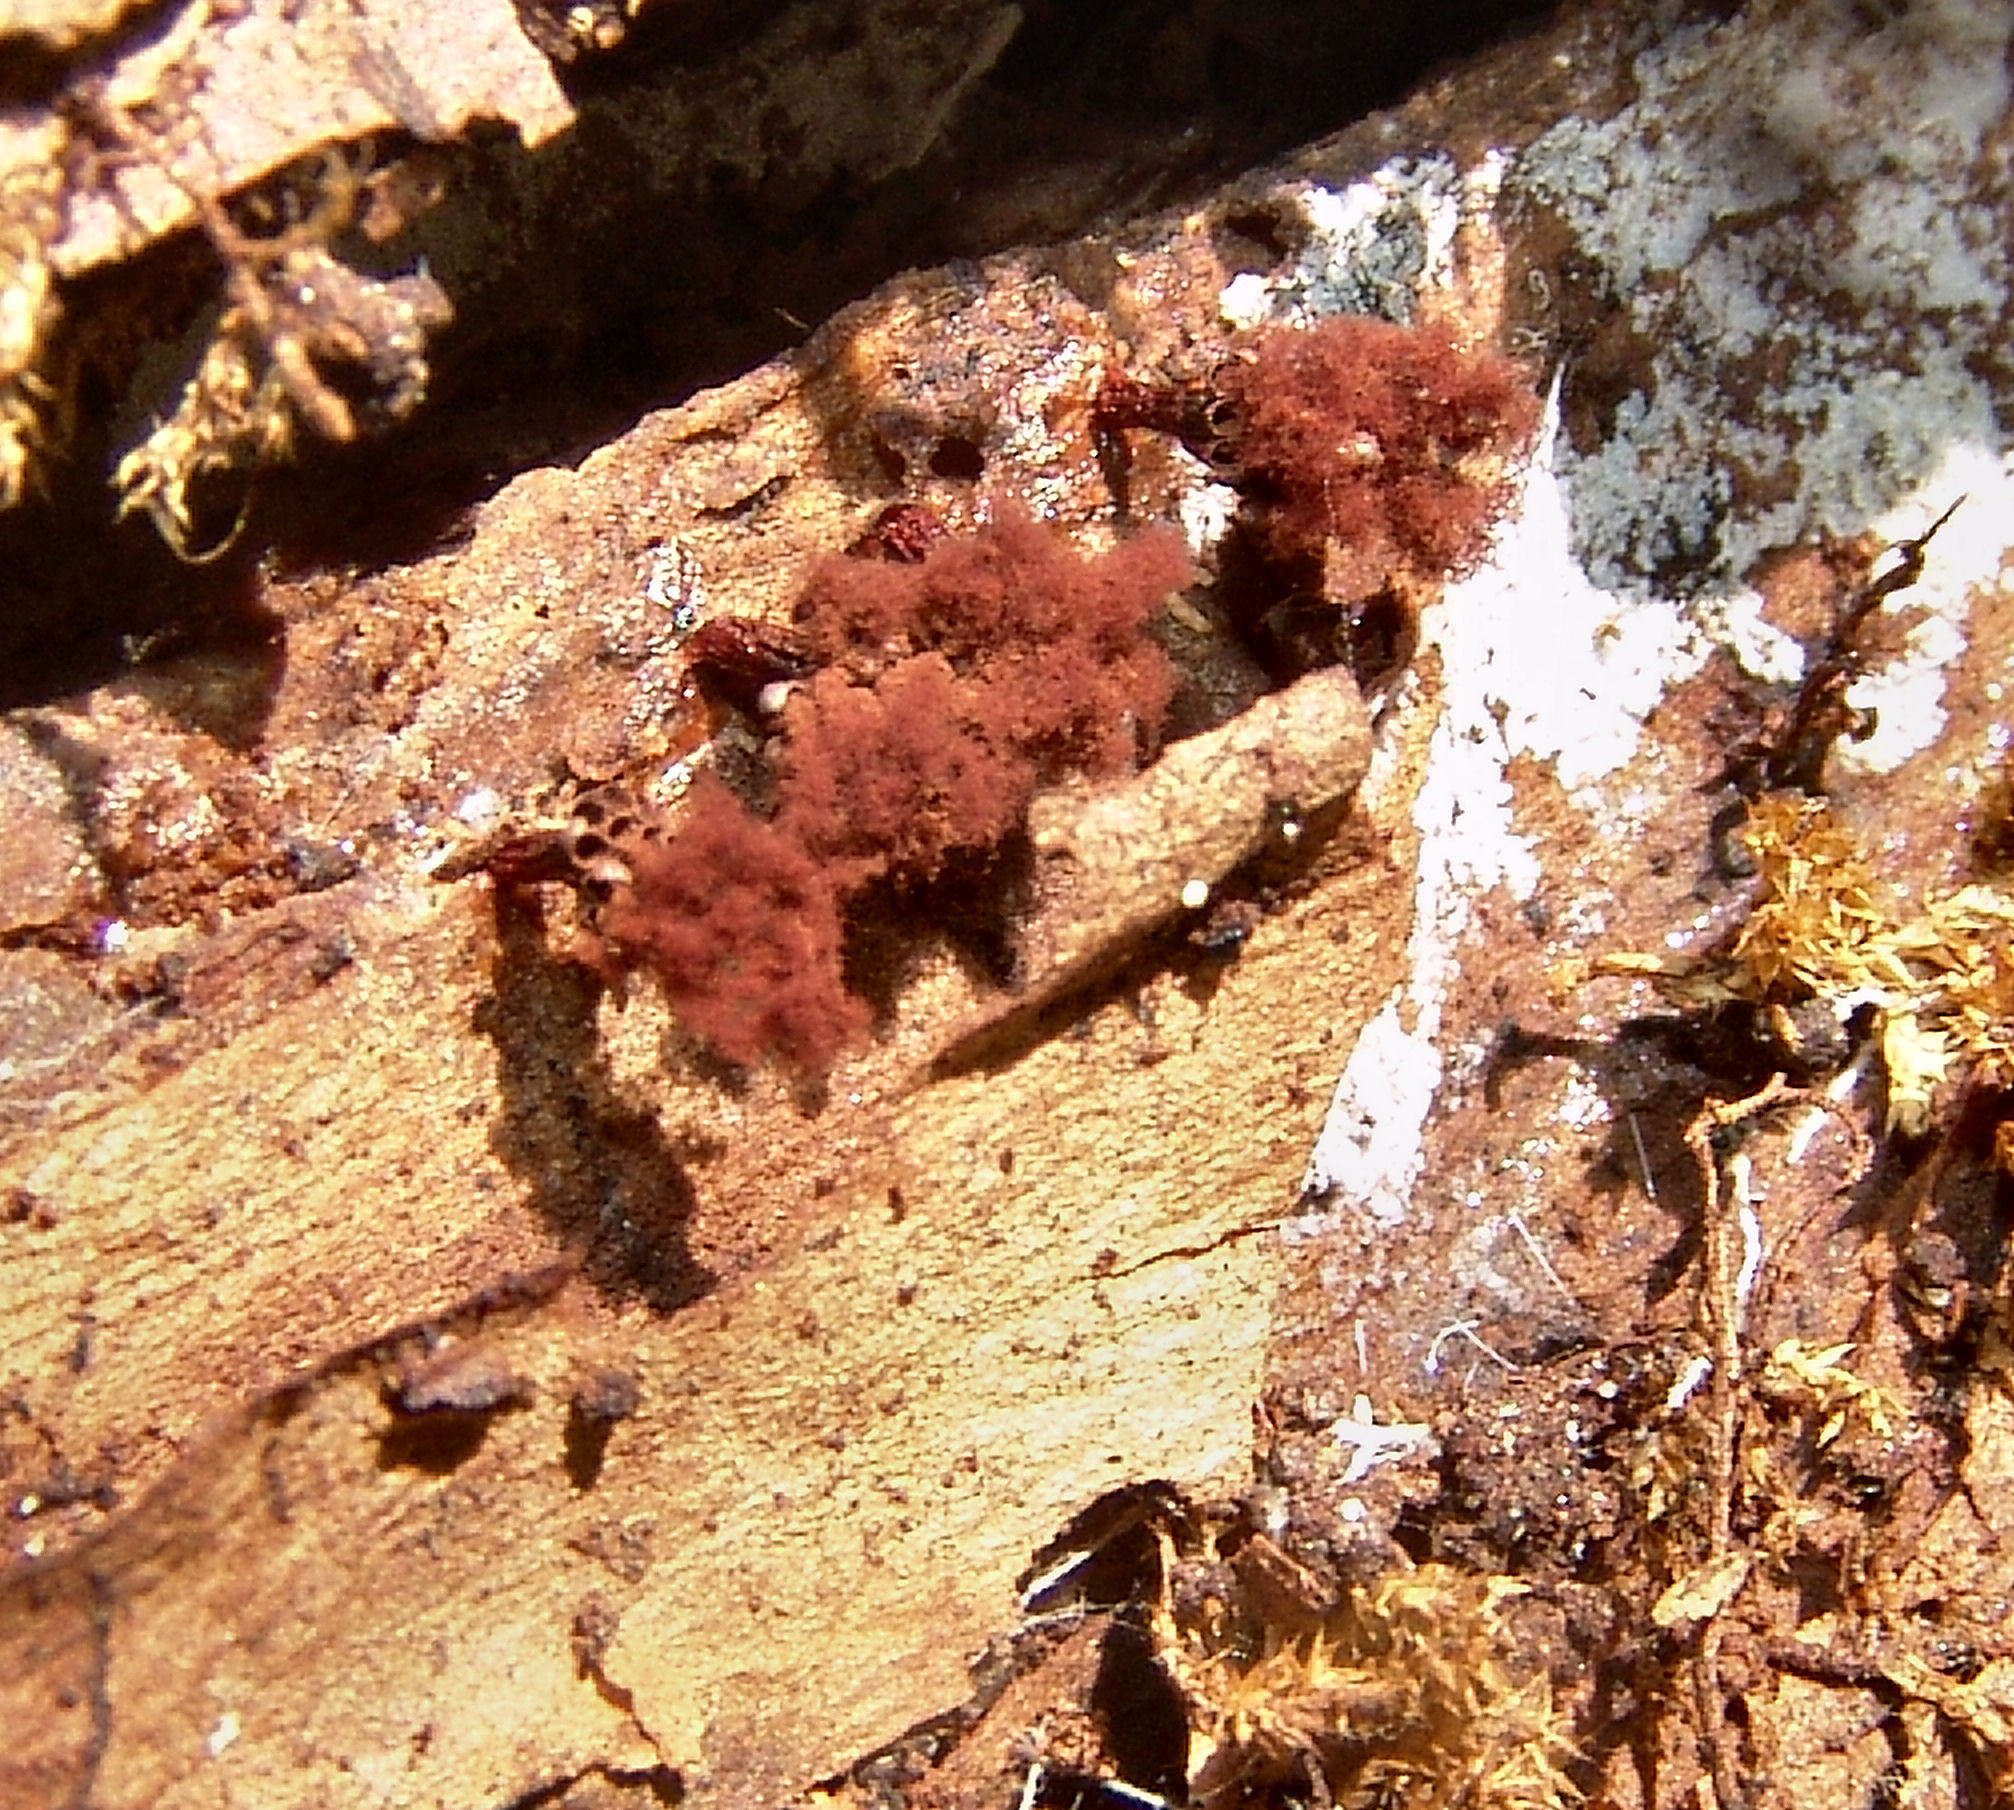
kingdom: Protozoa
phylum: Mycetozoa
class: Myxomycetes
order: Trichiales
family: Trichiaceae
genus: Metatrichia
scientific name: Metatrichia vesparia
